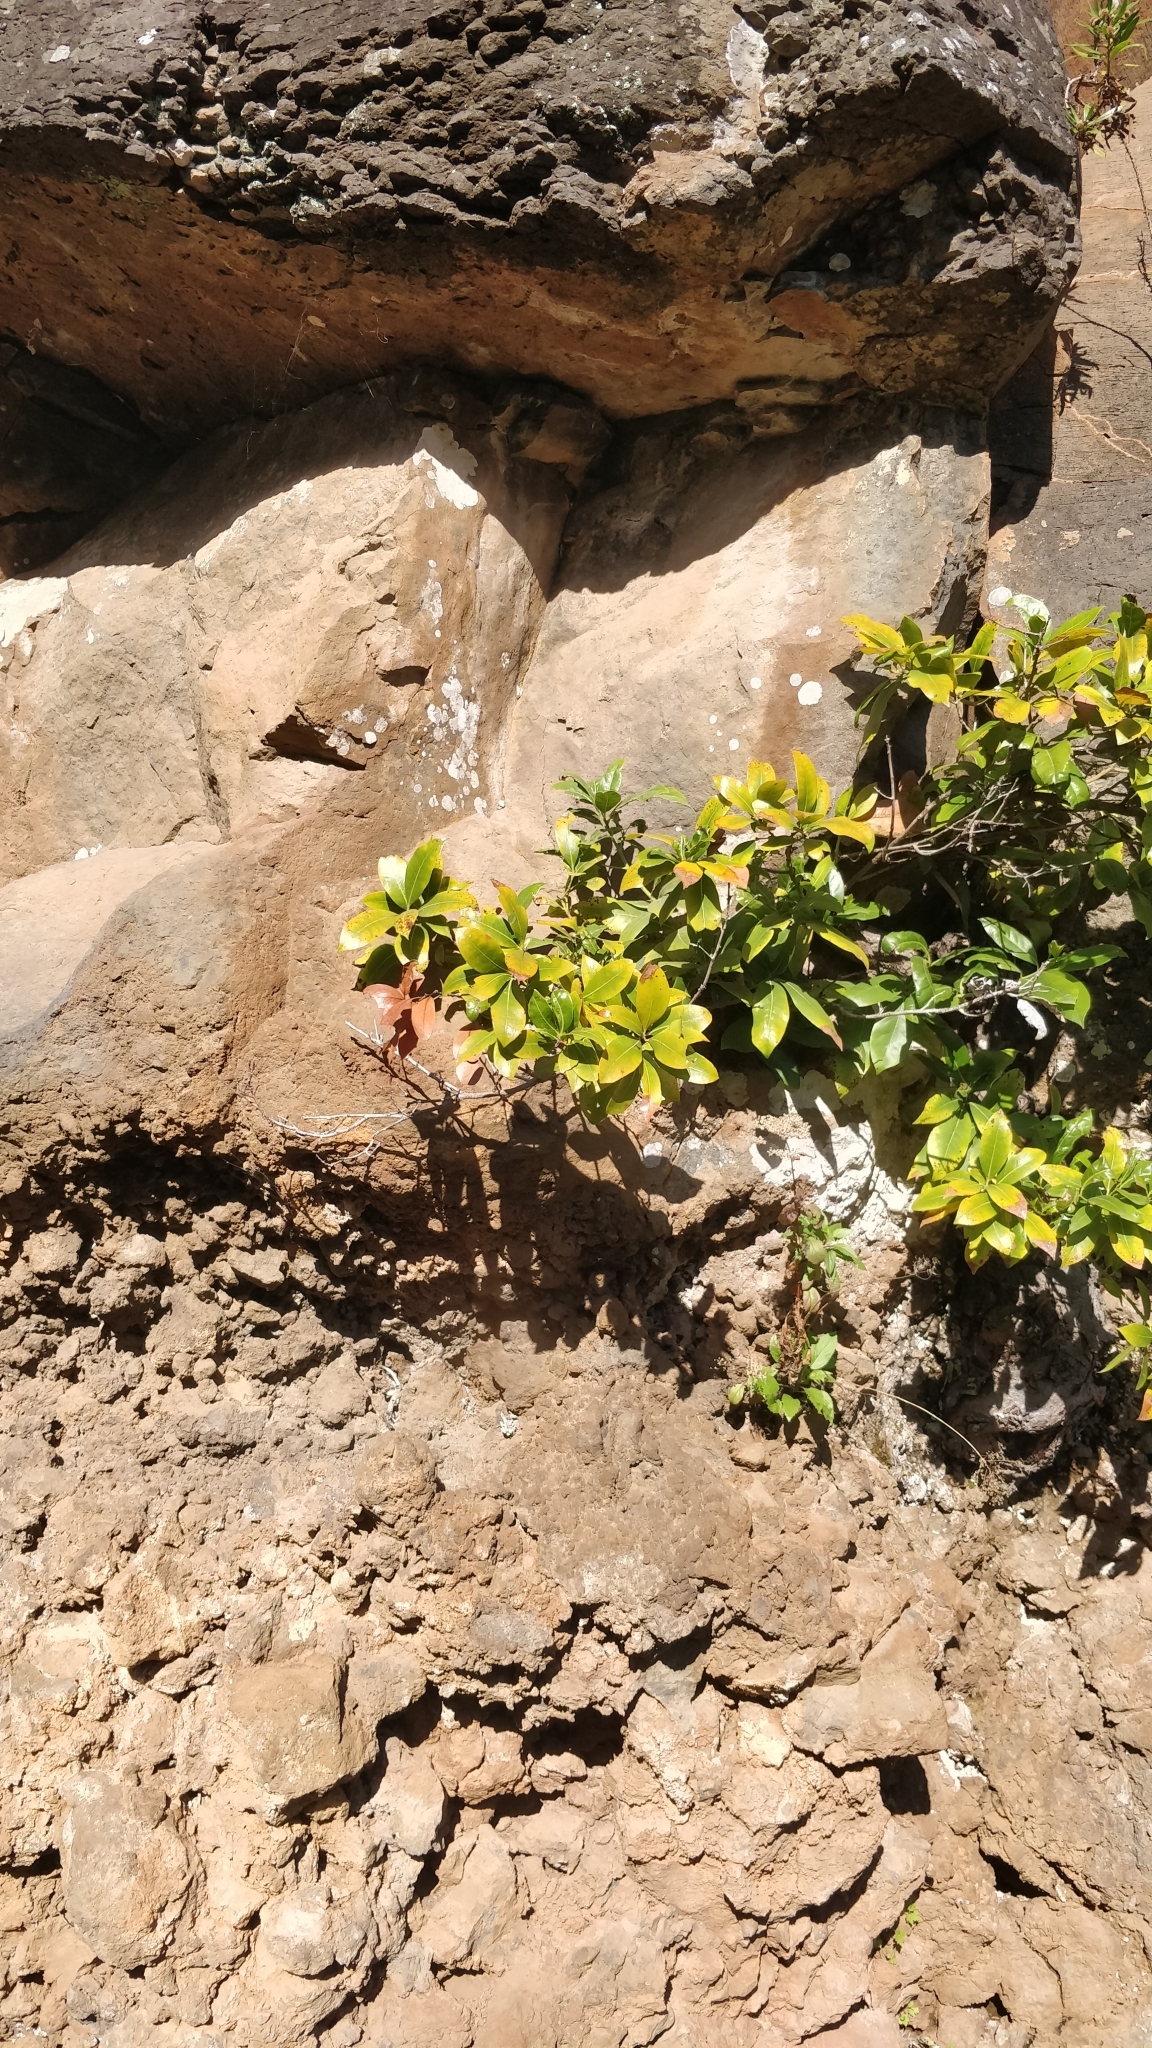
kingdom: Plantae
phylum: Tracheophyta
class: Magnoliopsida
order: Laurales
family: Lauraceae
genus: Apollonias
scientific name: Apollonias barbujana
